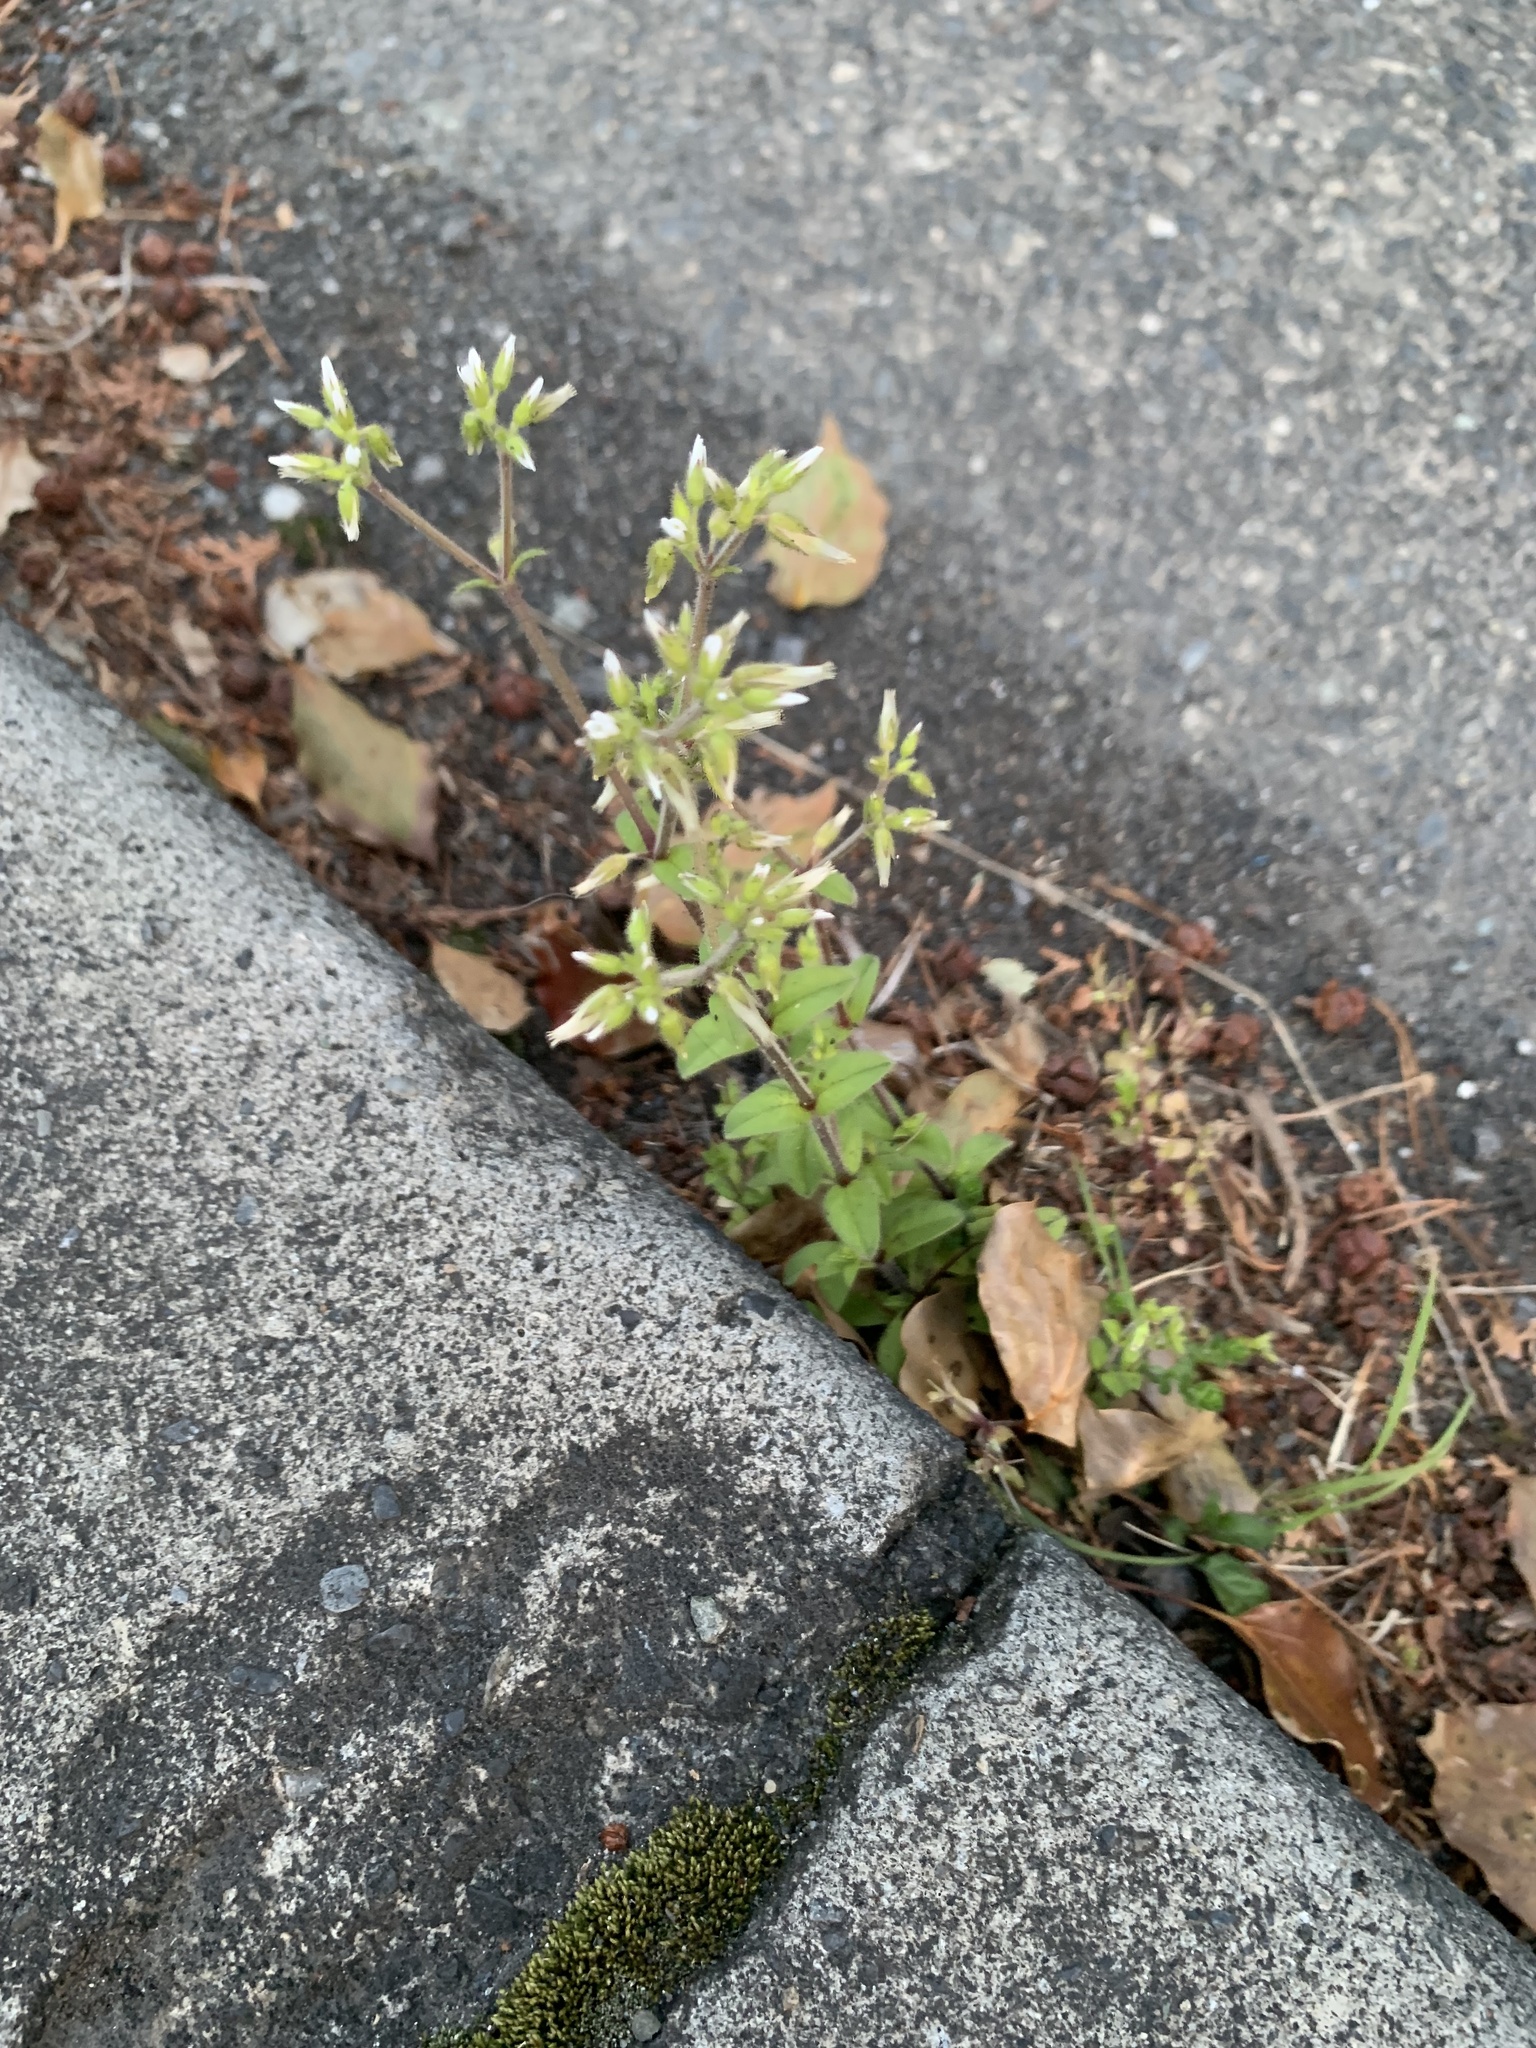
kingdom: Plantae
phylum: Tracheophyta
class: Magnoliopsida
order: Caryophyllales
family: Caryophyllaceae
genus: Cerastium
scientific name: Cerastium glomeratum
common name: Sticky chickweed
